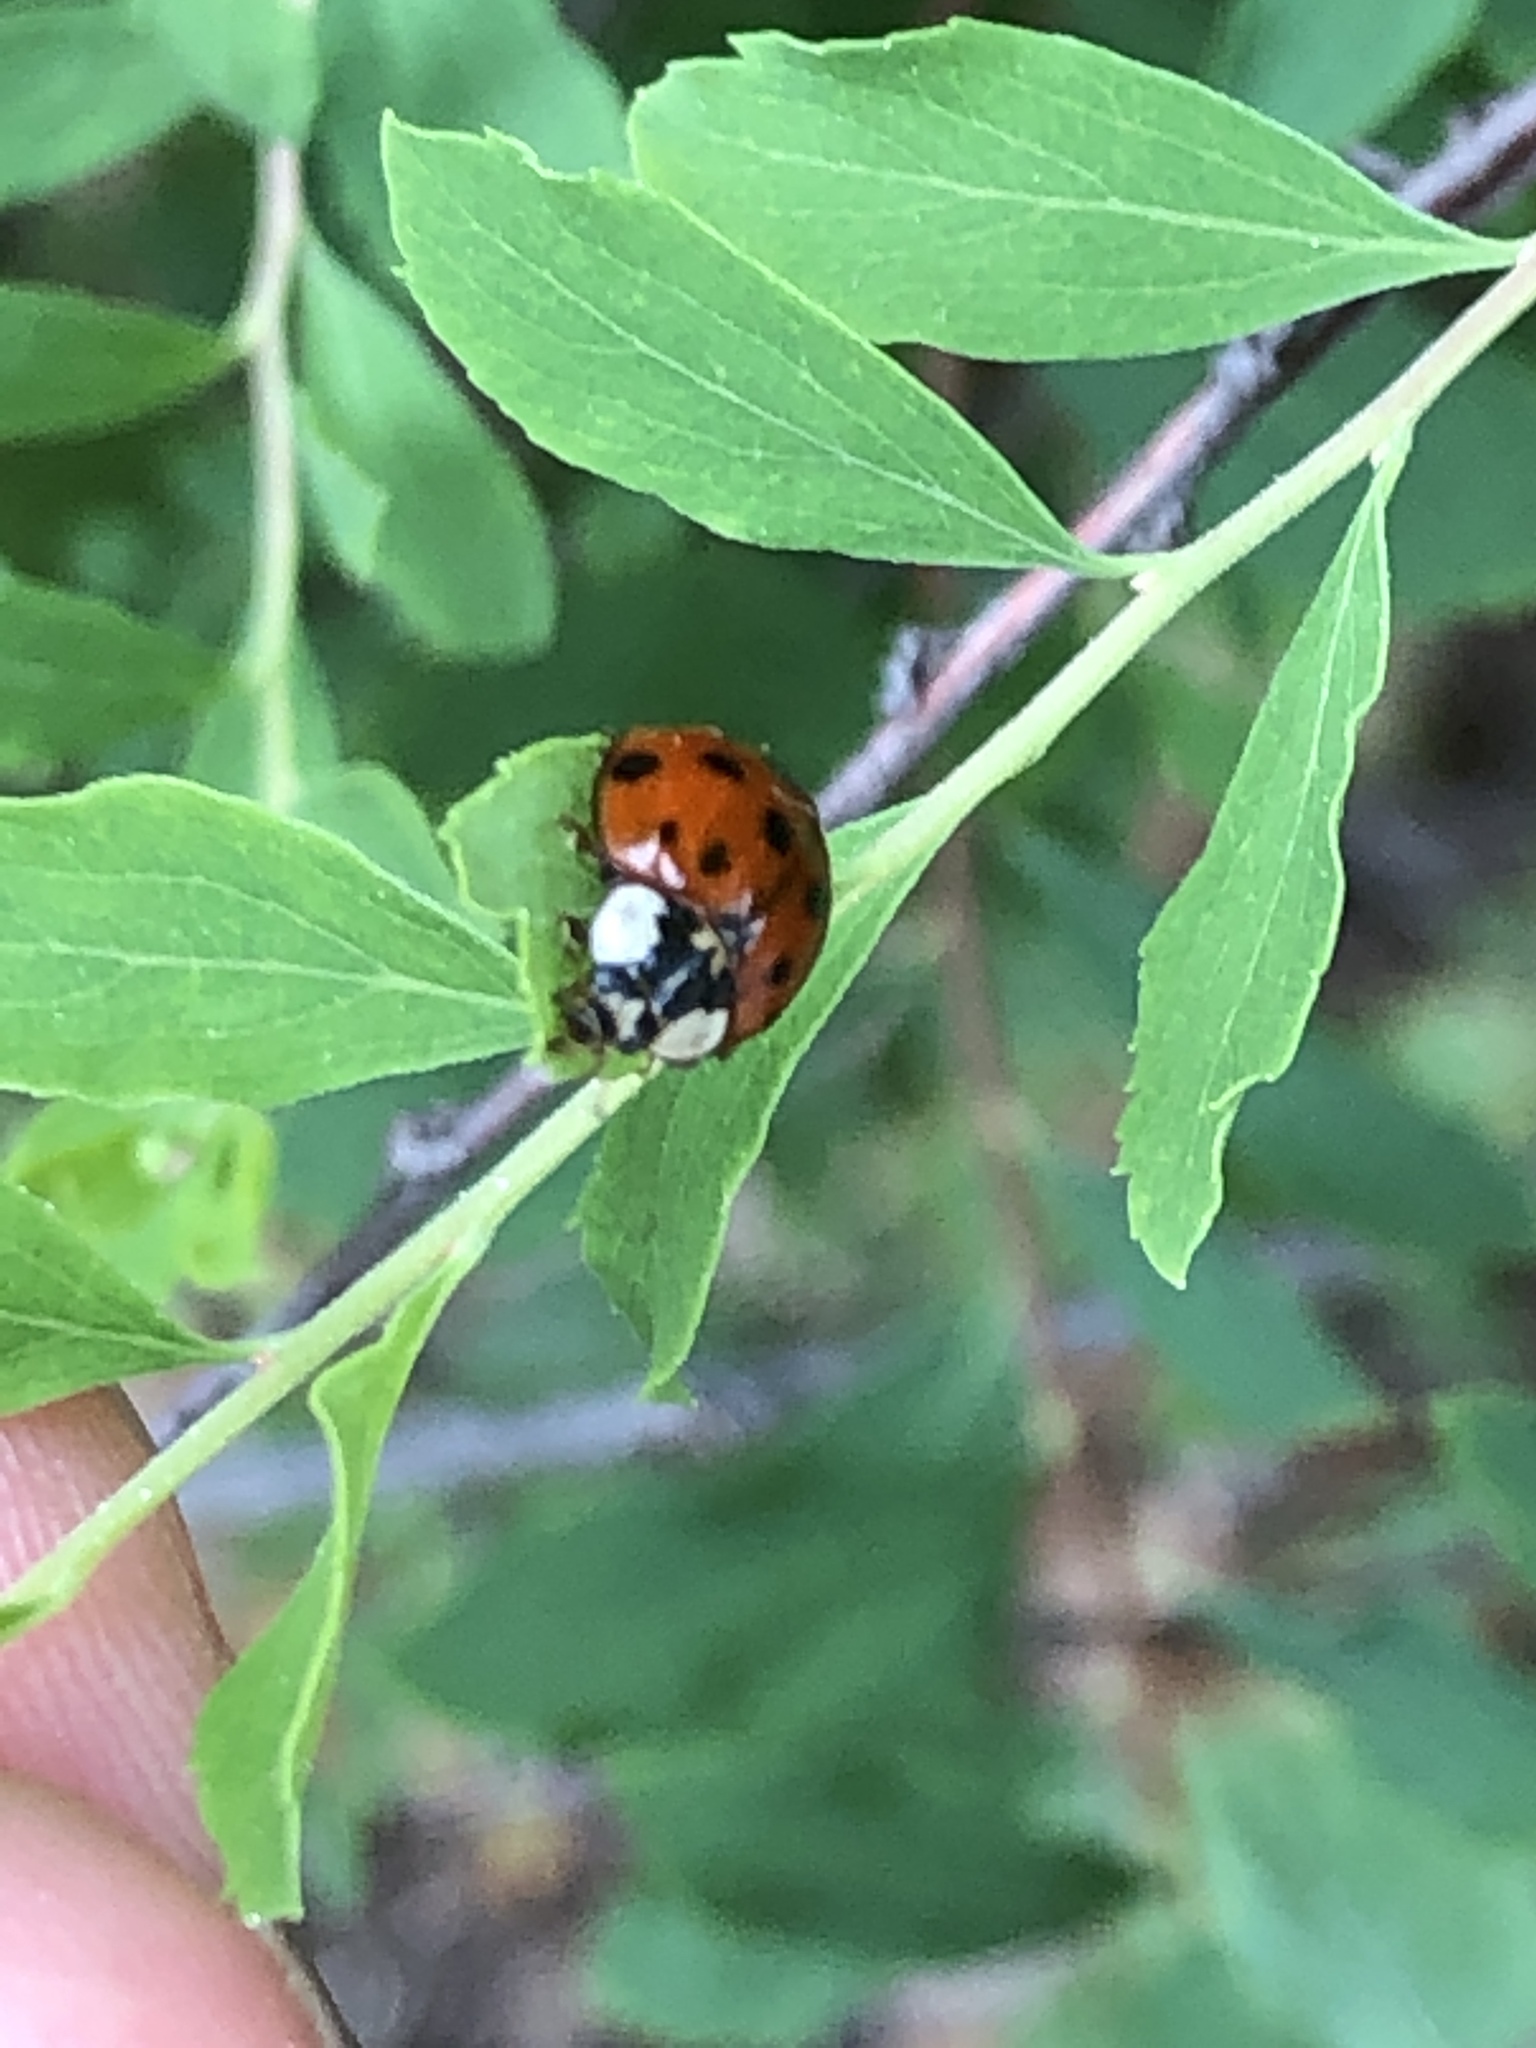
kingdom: Animalia
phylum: Arthropoda
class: Insecta
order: Coleoptera
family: Coccinellidae
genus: Harmonia
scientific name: Harmonia axyridis
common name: Harlequin ladybird
